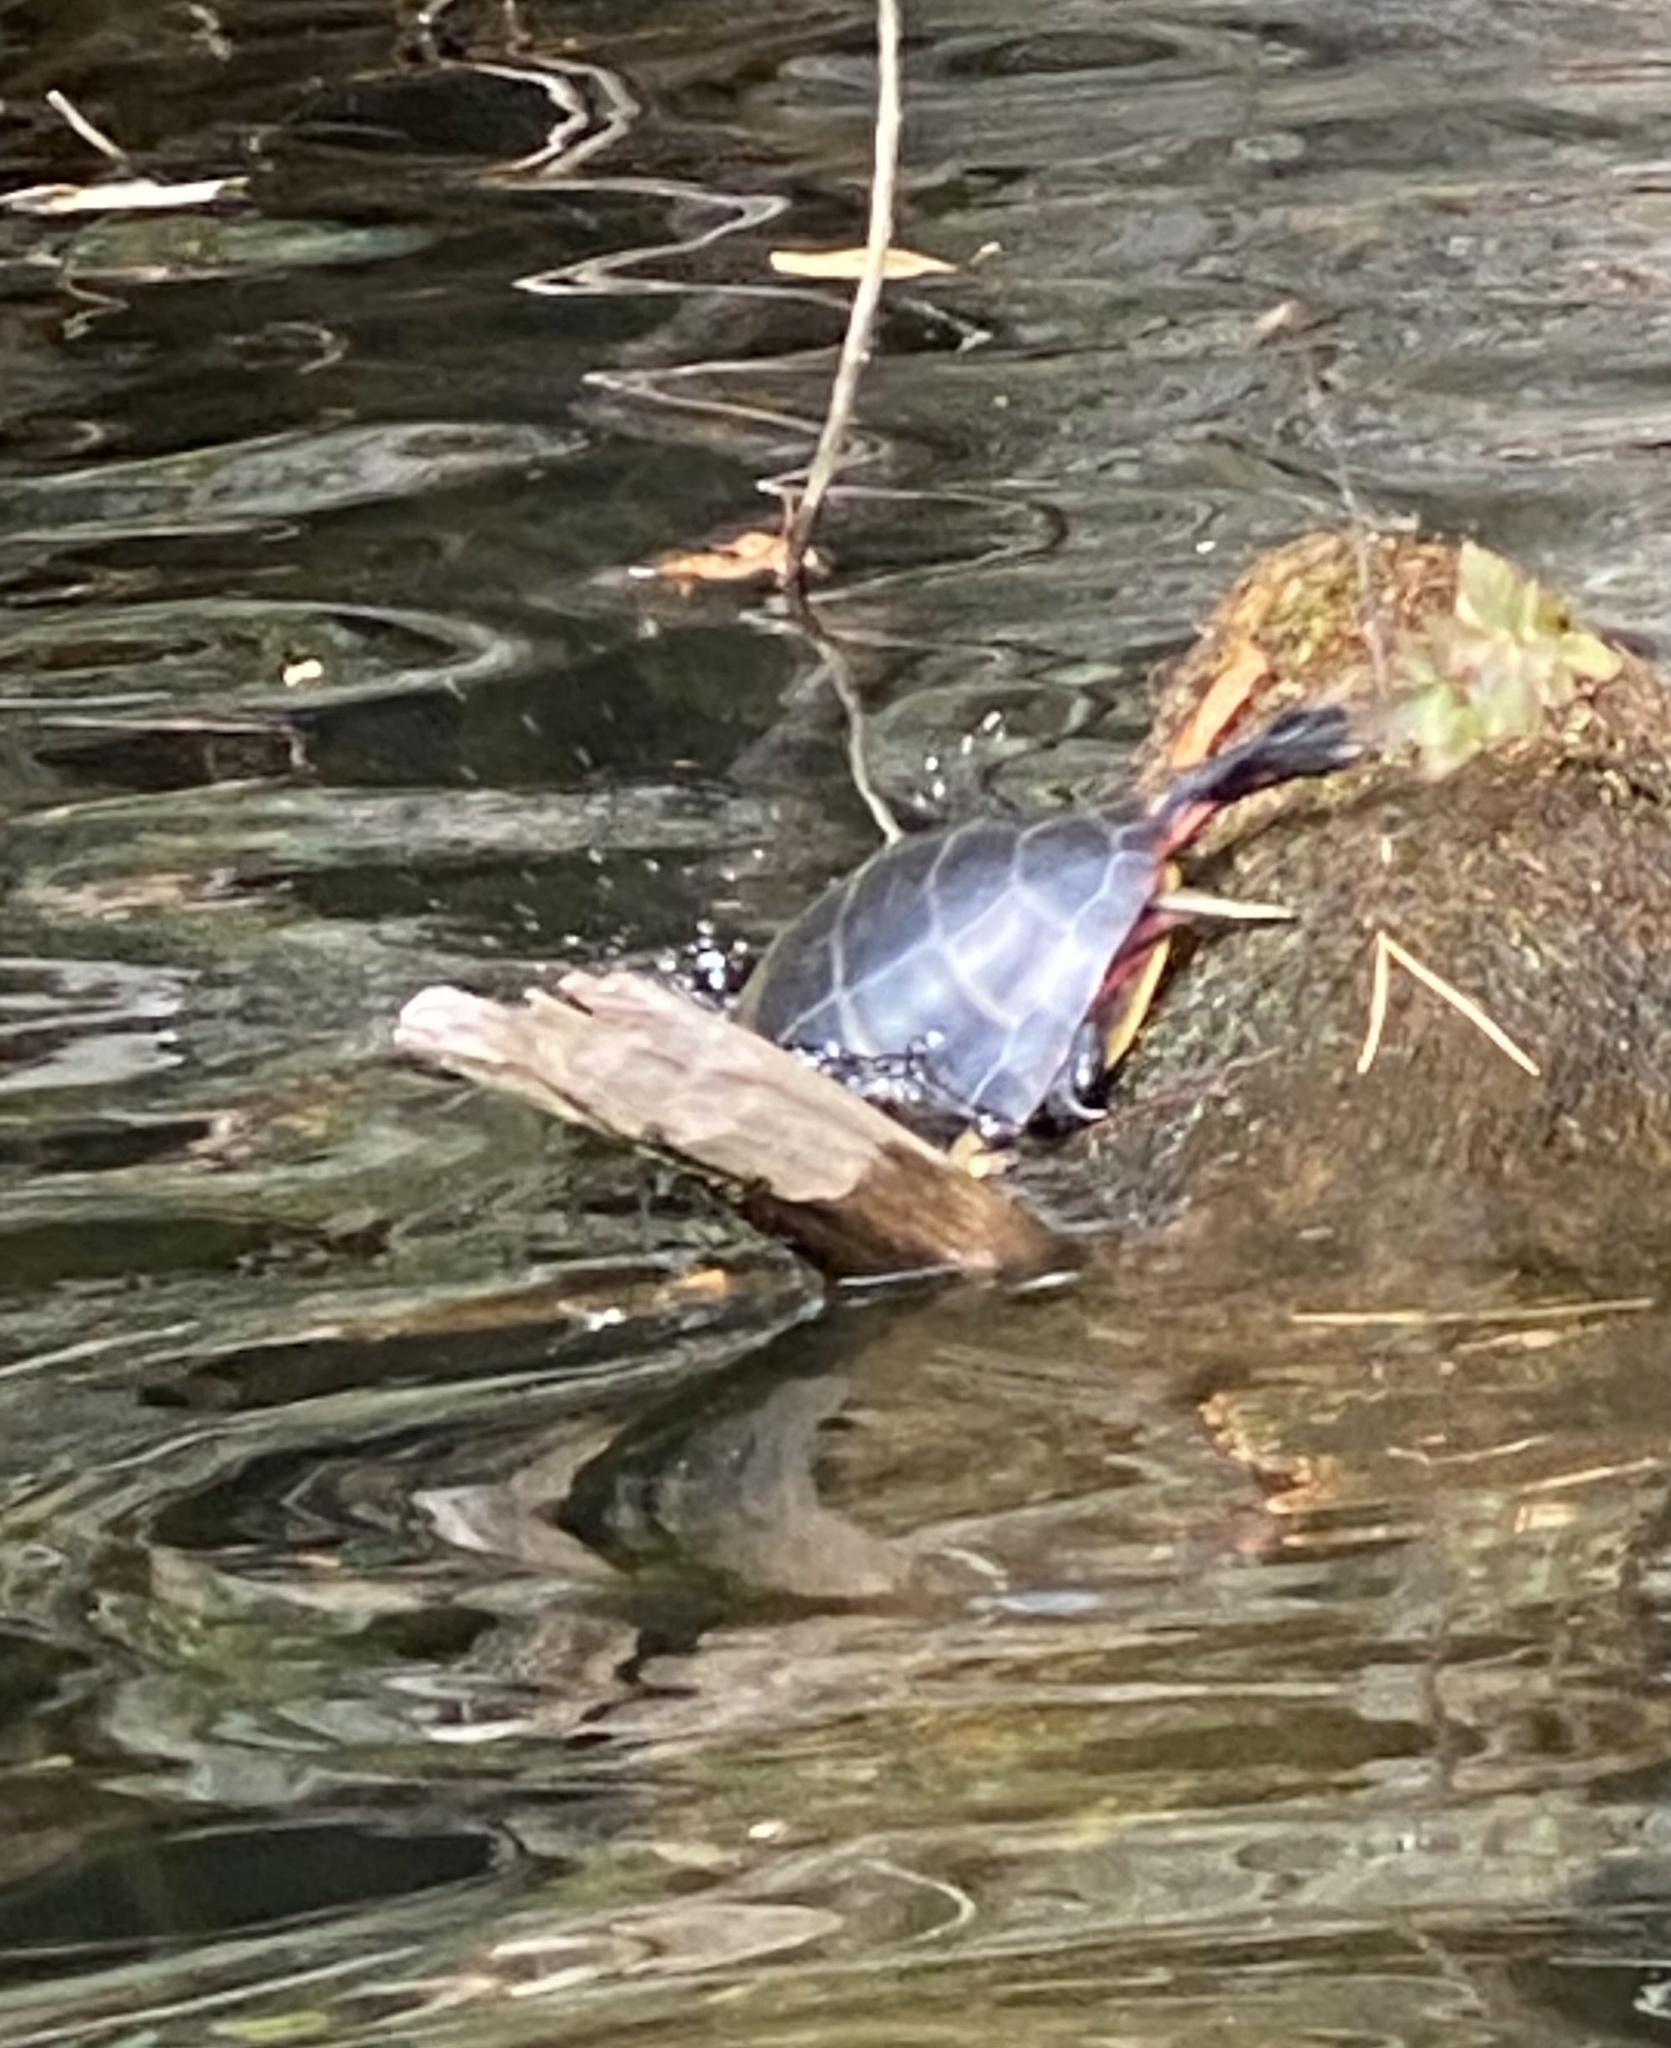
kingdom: Animalia
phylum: Chordata
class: Testudines
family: Emydidae
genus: Chrysemys
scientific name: Chrysemys picta
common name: Painted turtle
